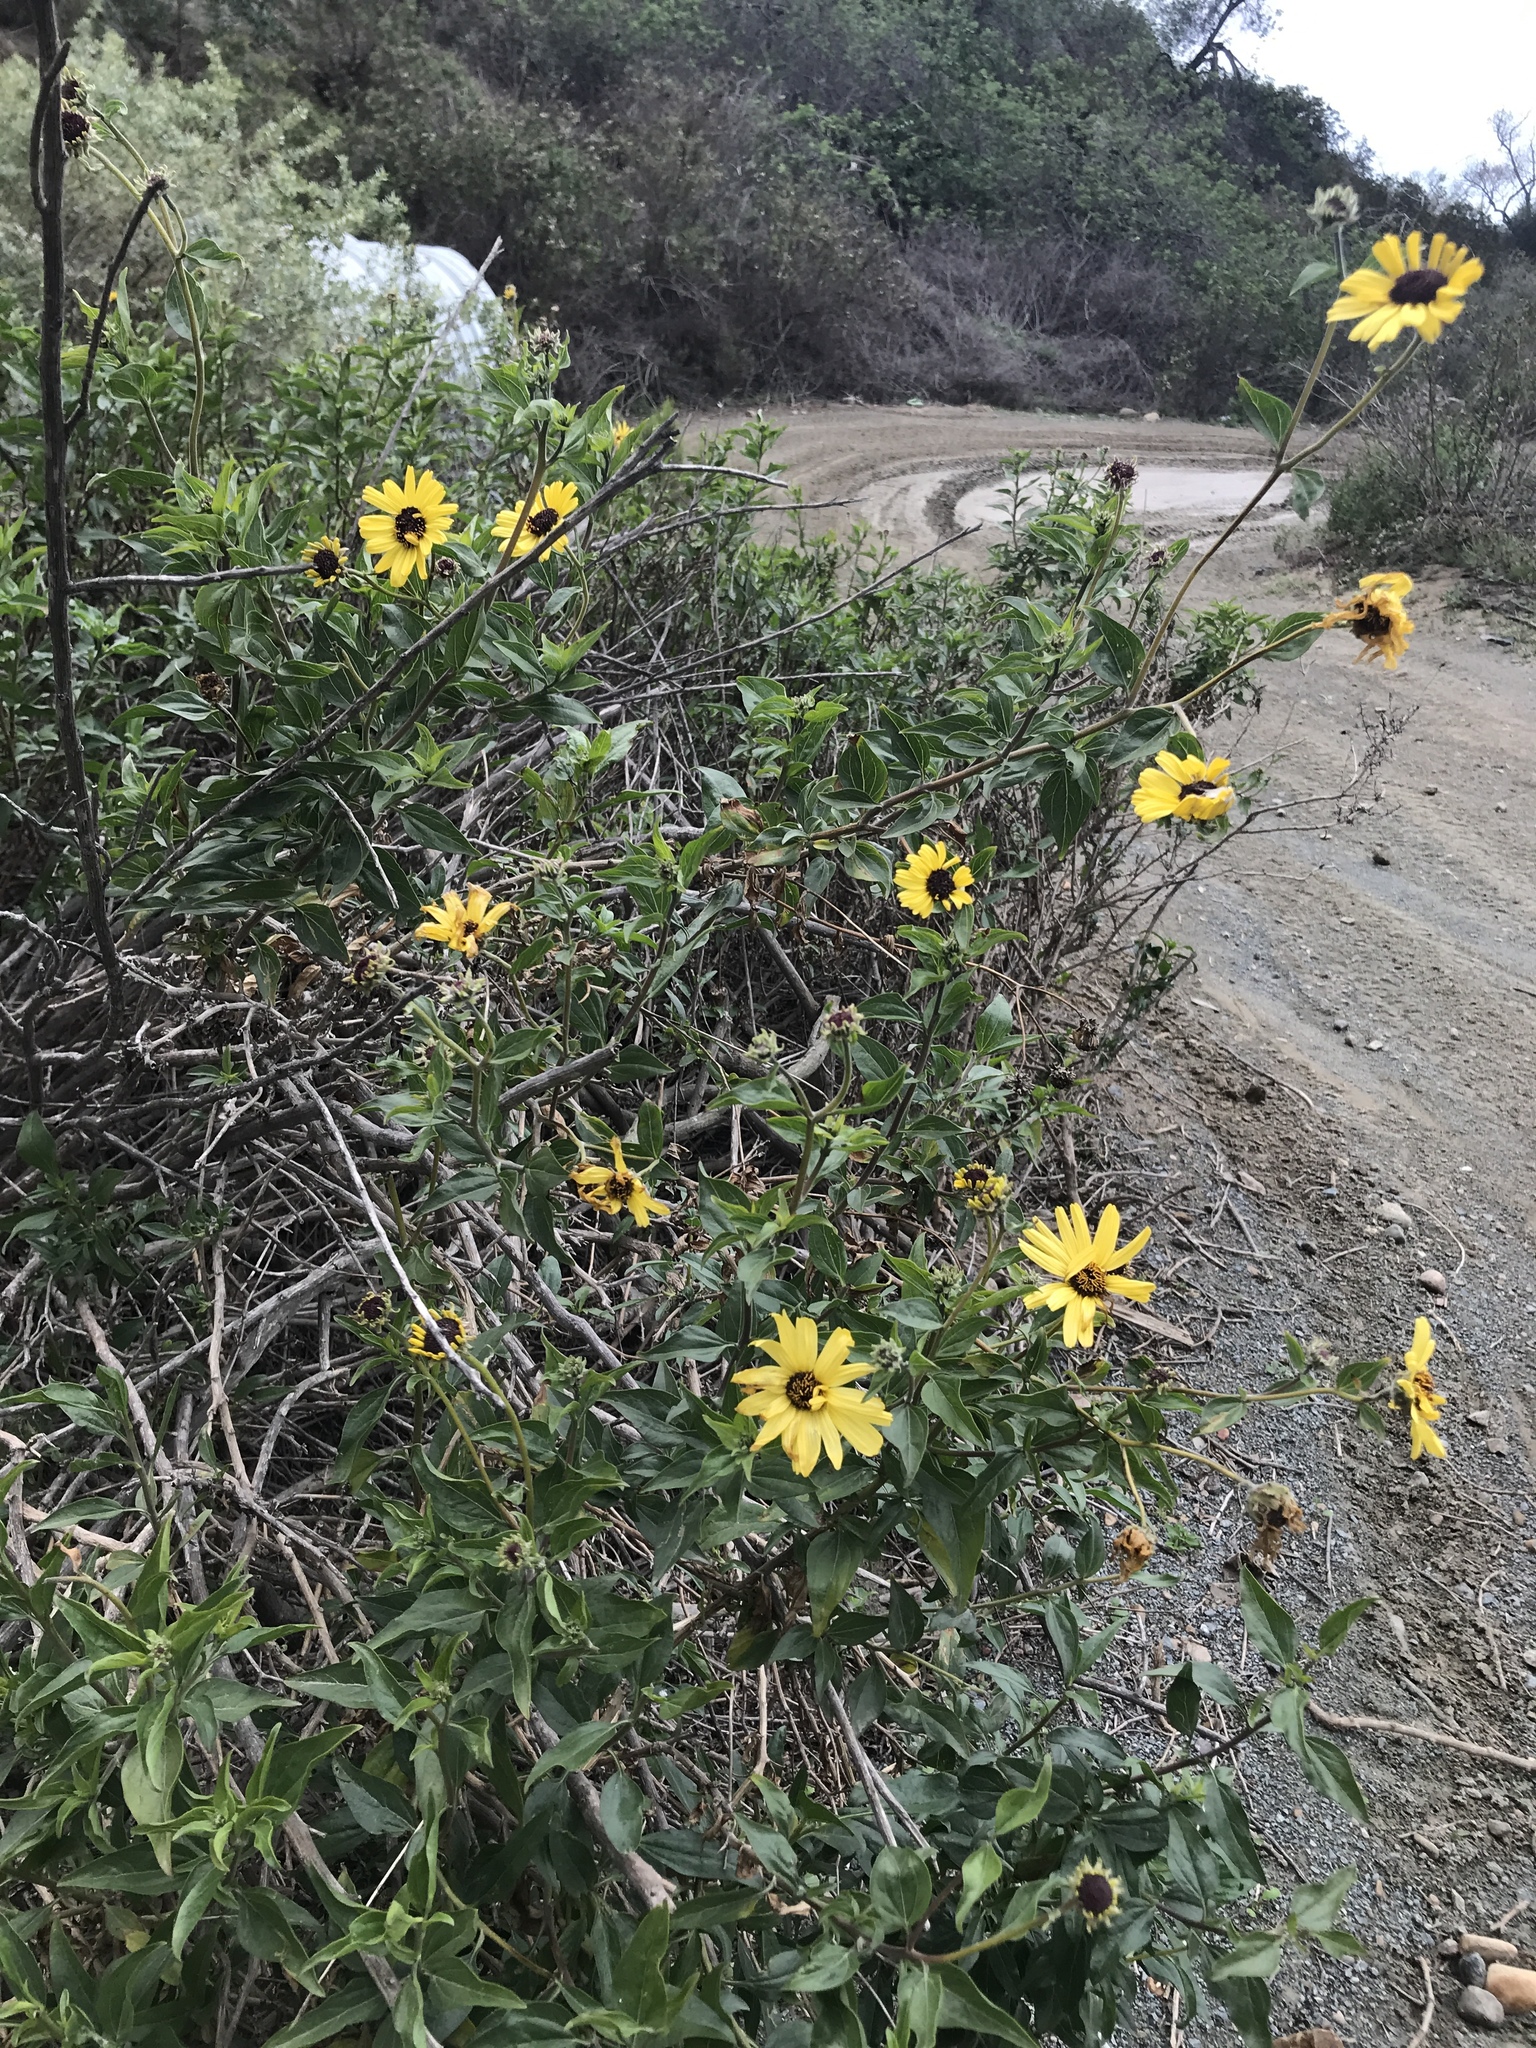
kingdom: Plantae
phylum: Tracheophyta
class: Magnoliopsida
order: Asterales
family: Asteraceae
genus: Encelia
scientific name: Encelia californica
